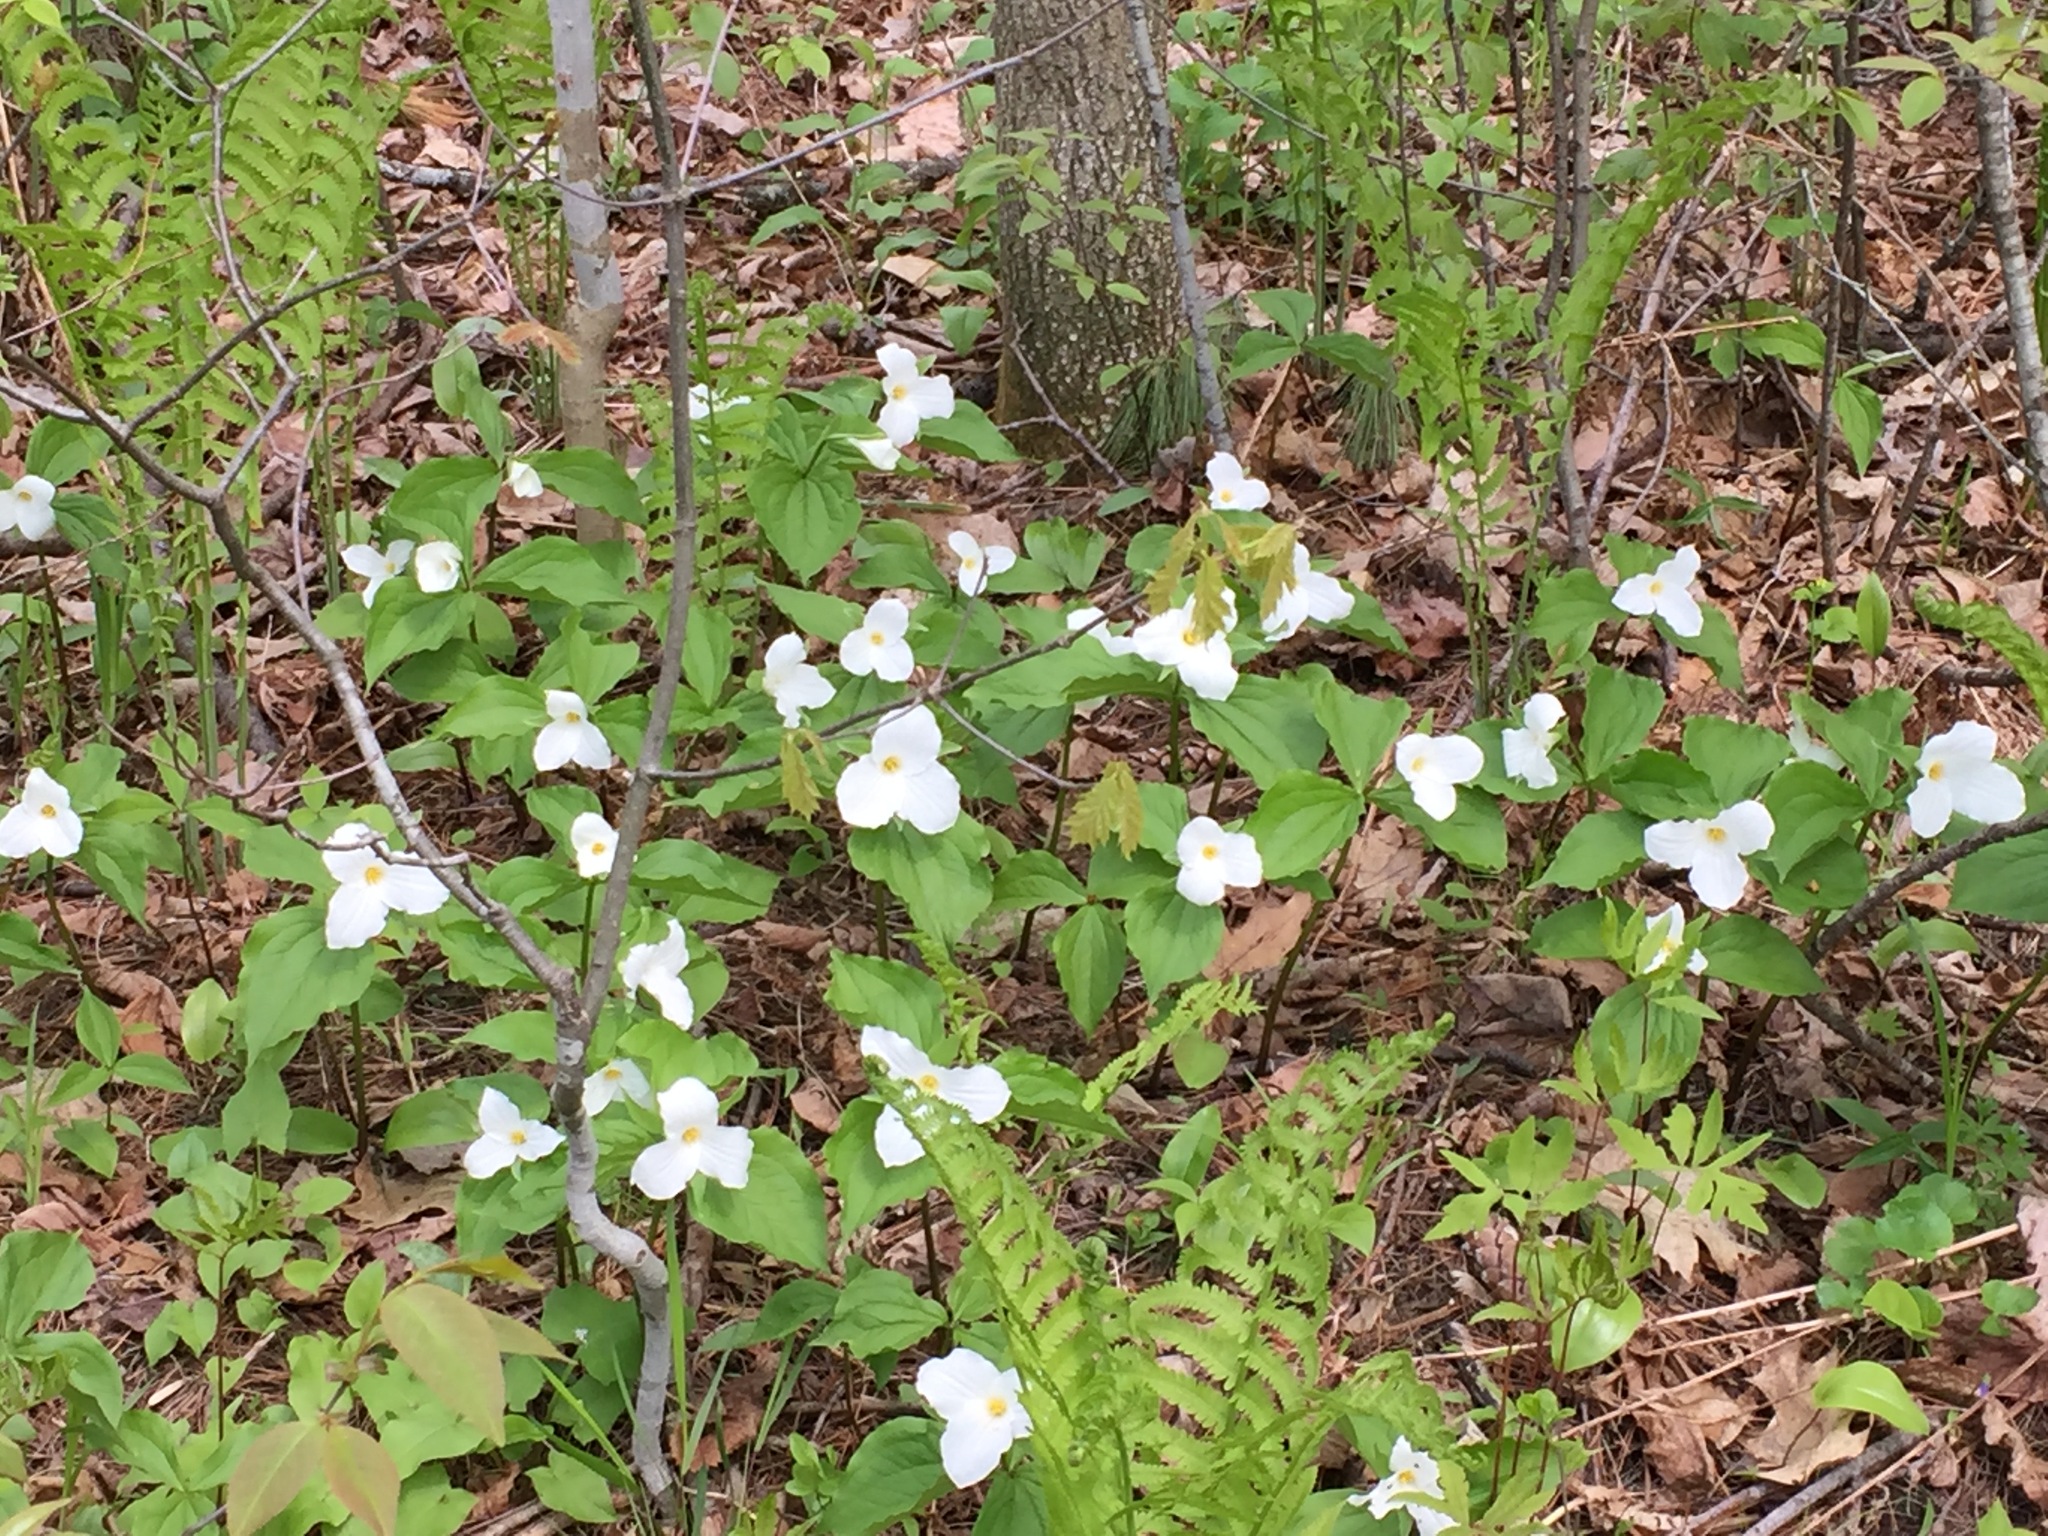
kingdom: Plantae
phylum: Tracheophyta
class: Liliopsida
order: Liliales
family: Melanthiaceae
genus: Trillium
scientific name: Trillium grandiflorum
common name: Great white trillium
